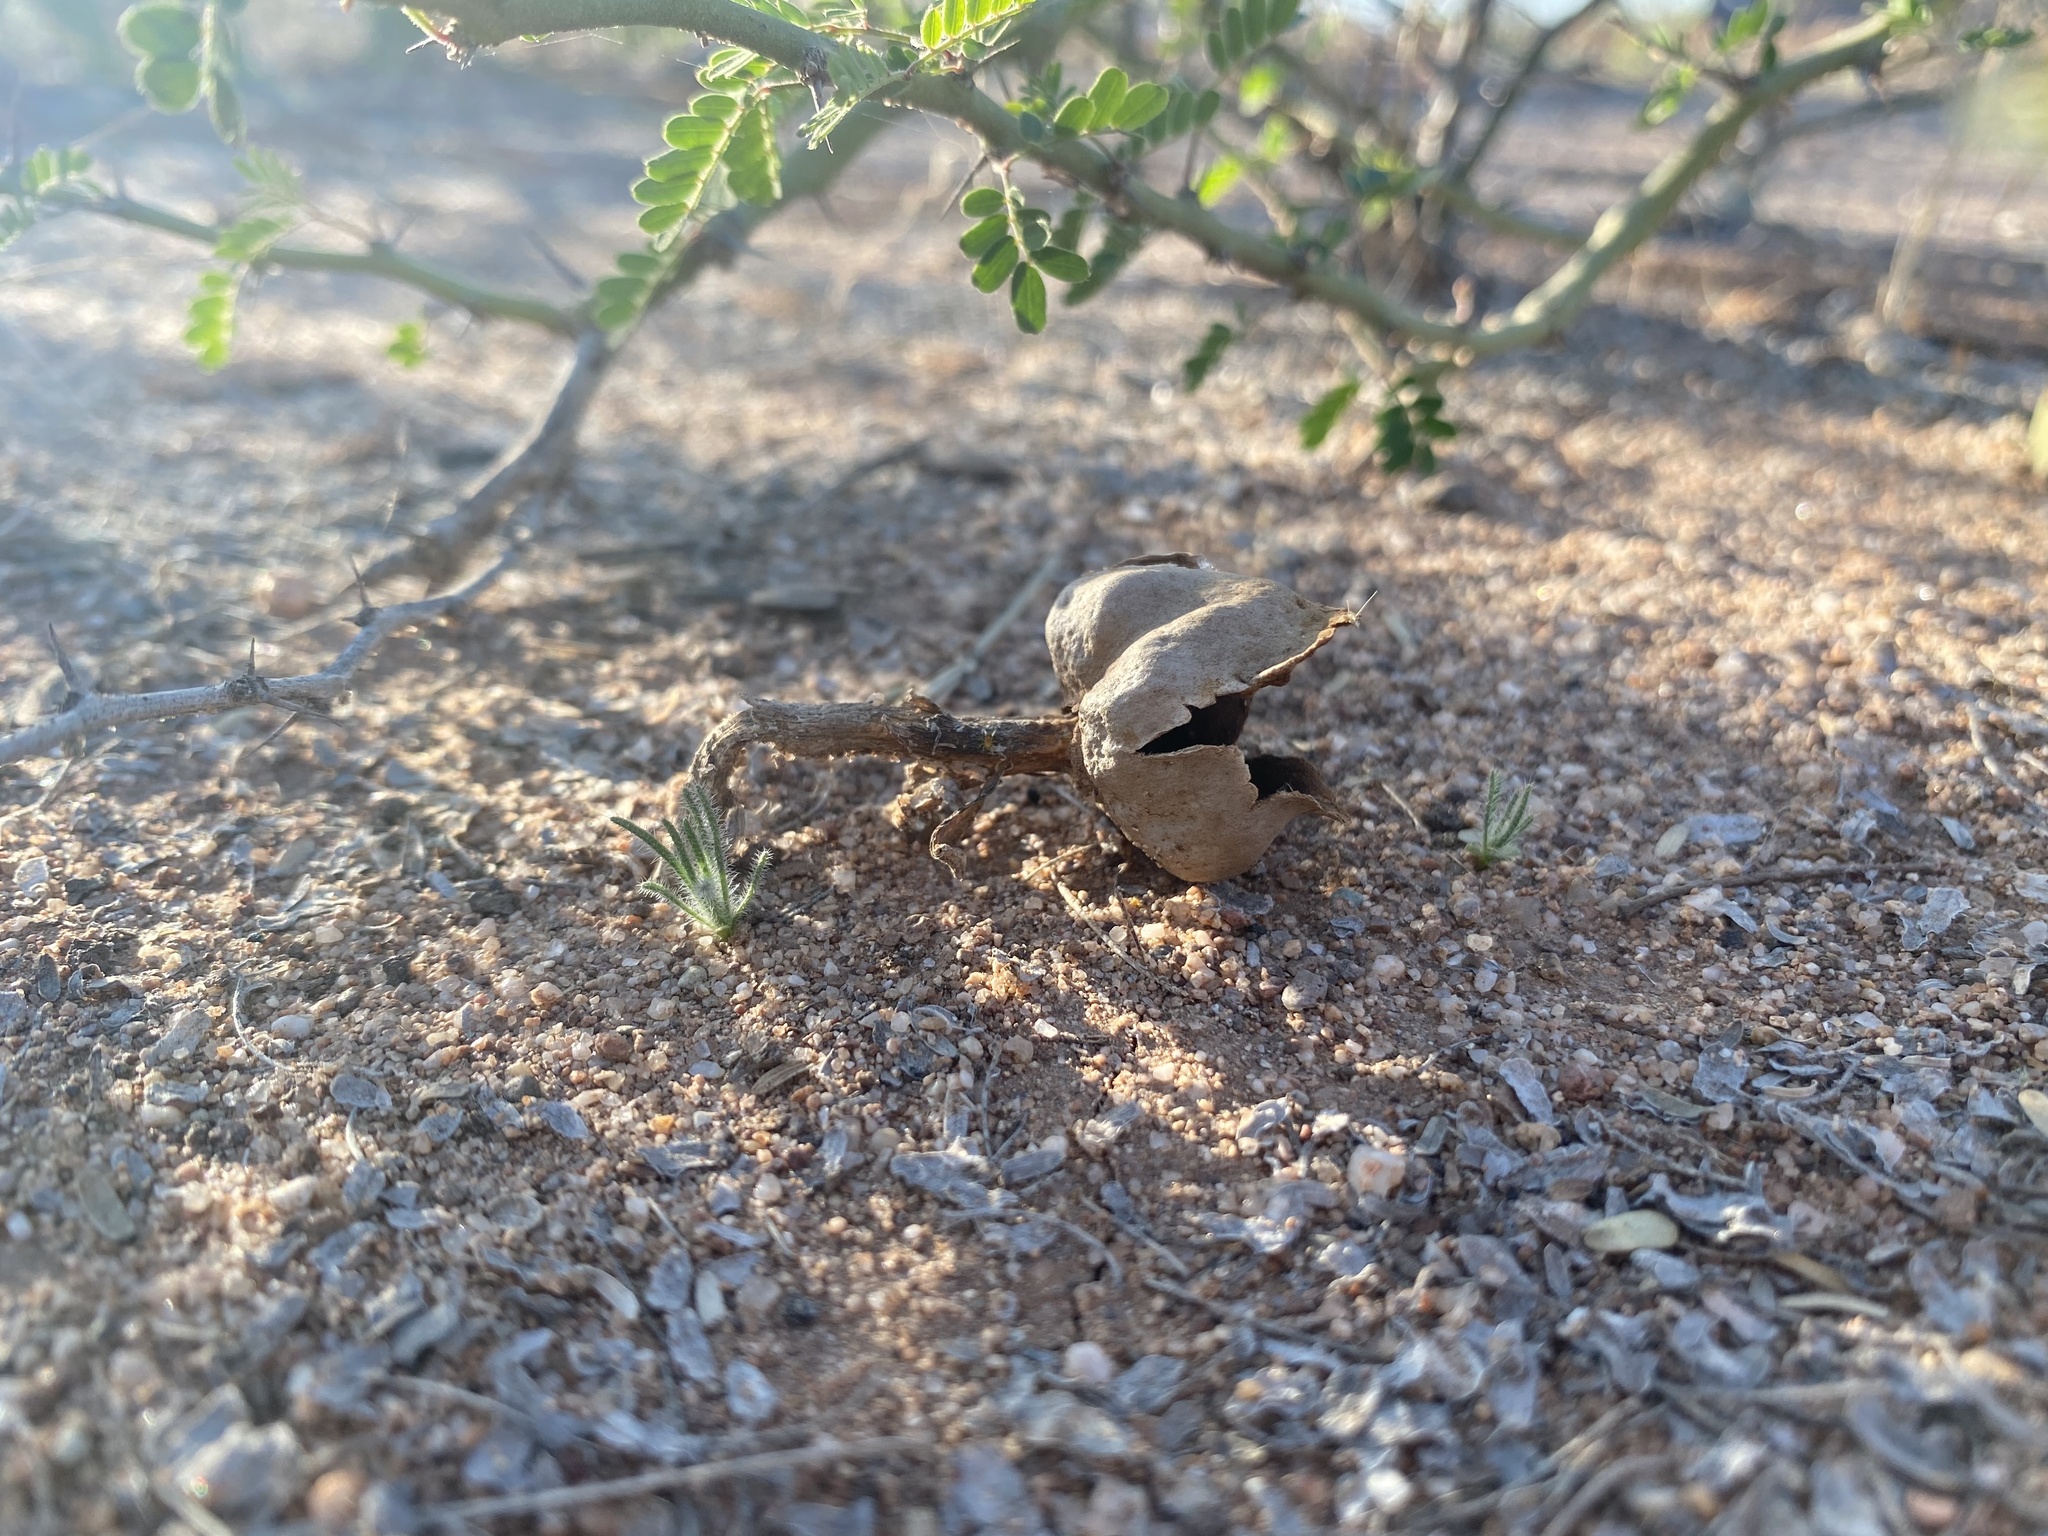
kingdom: Fungi
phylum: Basidiomycota
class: Agaricomycetes
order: Agaricales
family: Agaricaceae
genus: Schizostoma
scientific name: Schizostoma laceratum
